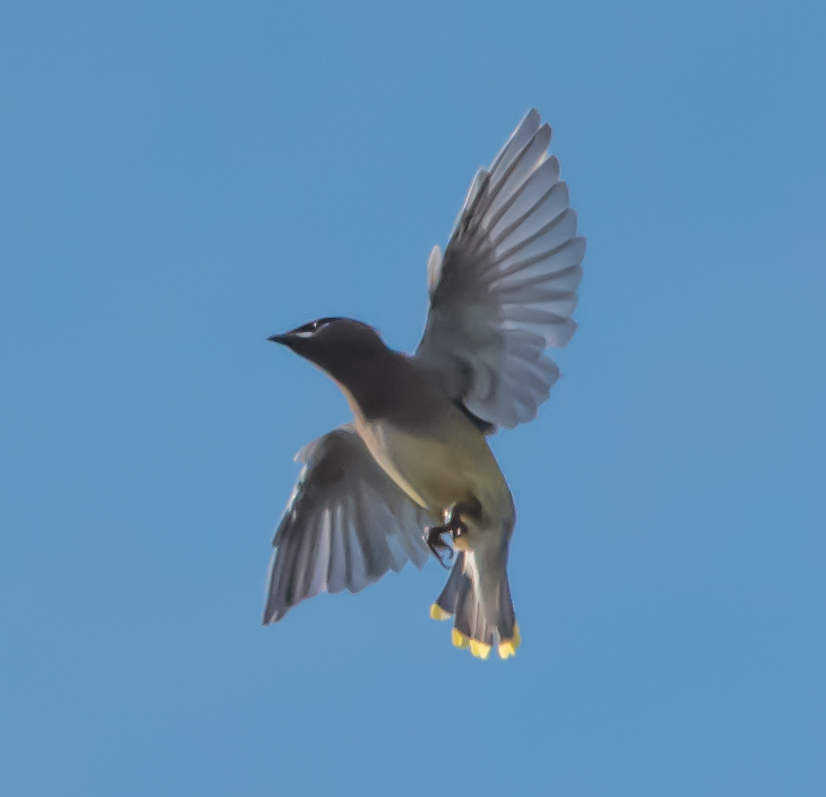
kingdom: Animalia
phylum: Chordata
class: Aves
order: Passeriformes
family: Bombycillidae
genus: Bombycilla
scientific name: Bombycilla cedrorum
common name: Cedar waxwing
